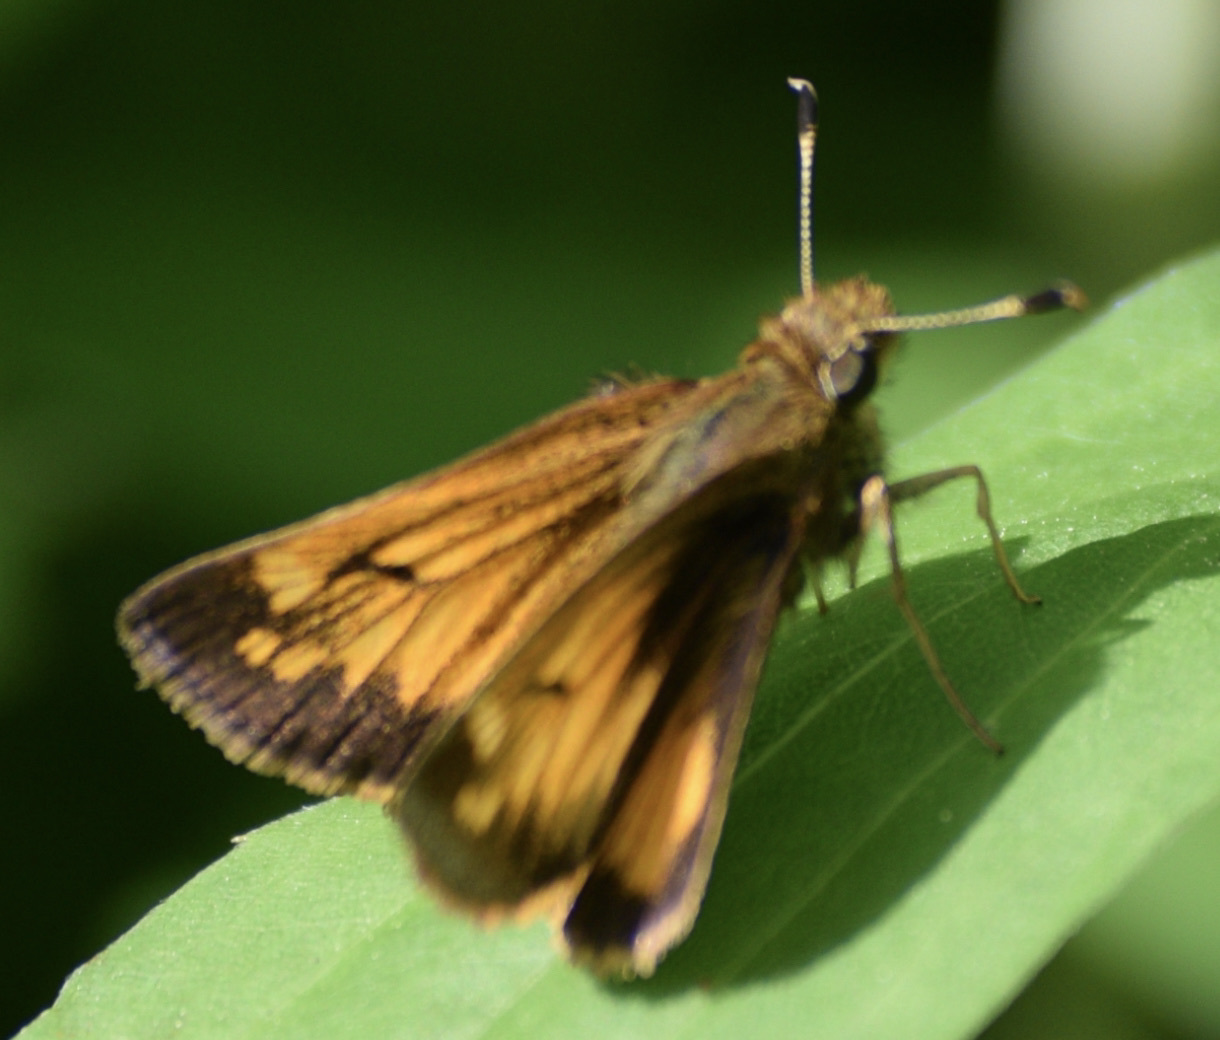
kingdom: Animalia
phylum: Arthropoda
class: Insecta
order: Lepidoptera
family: Hesperiidae
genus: Lon
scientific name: Lon hobomok
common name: Hobomok skipper
